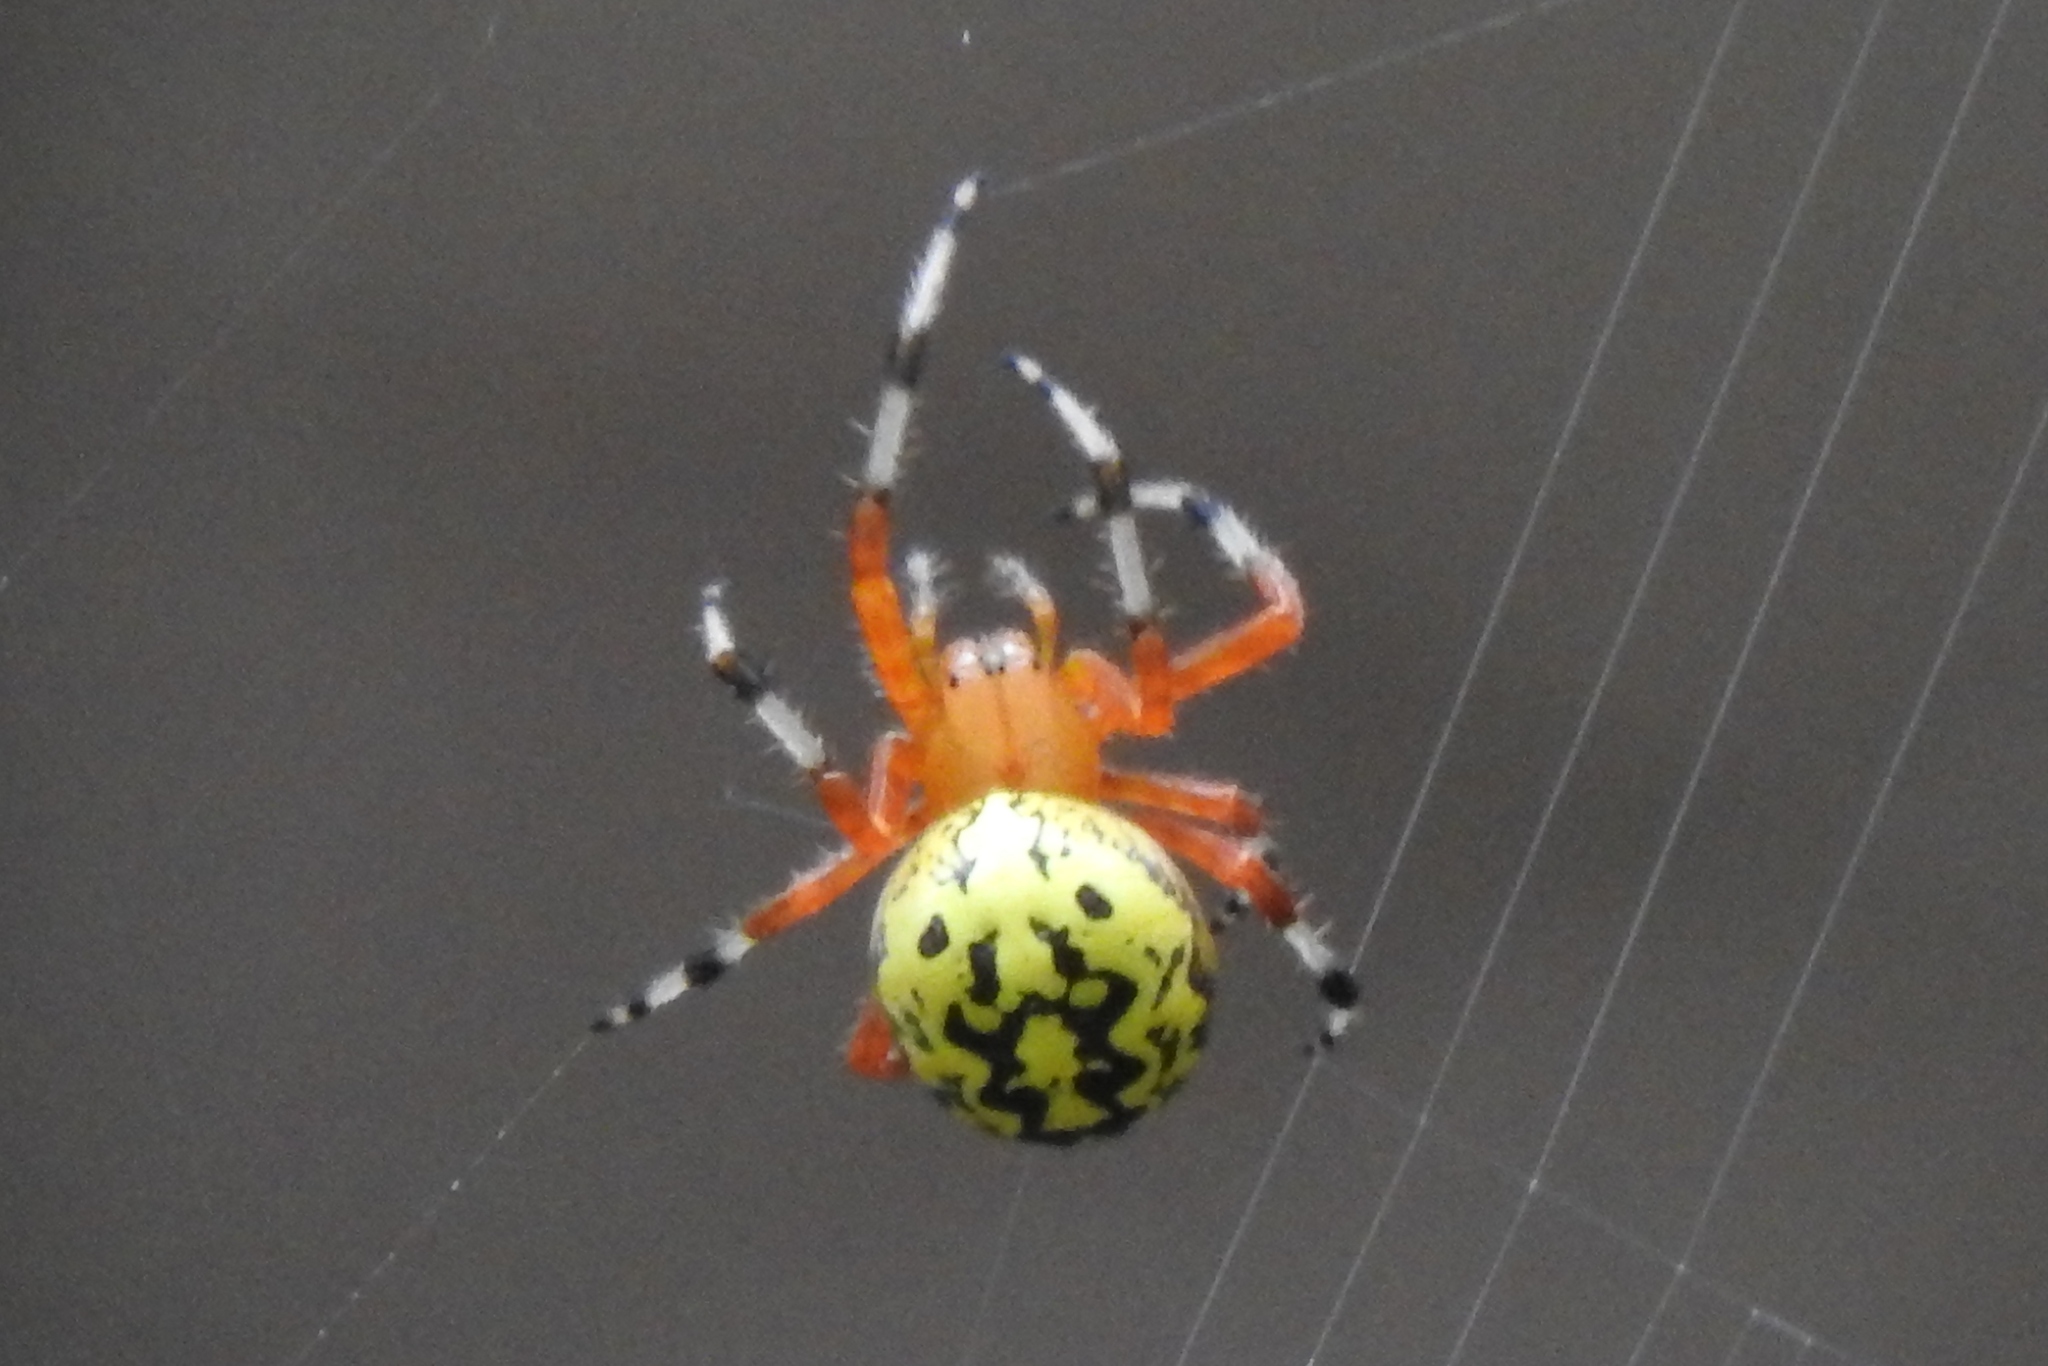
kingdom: Animalia
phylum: Arthropoda
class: Arachnida
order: Araneae
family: Araneidae
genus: Araneus
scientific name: Araneus marmoreus
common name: Marbled orbweaver
